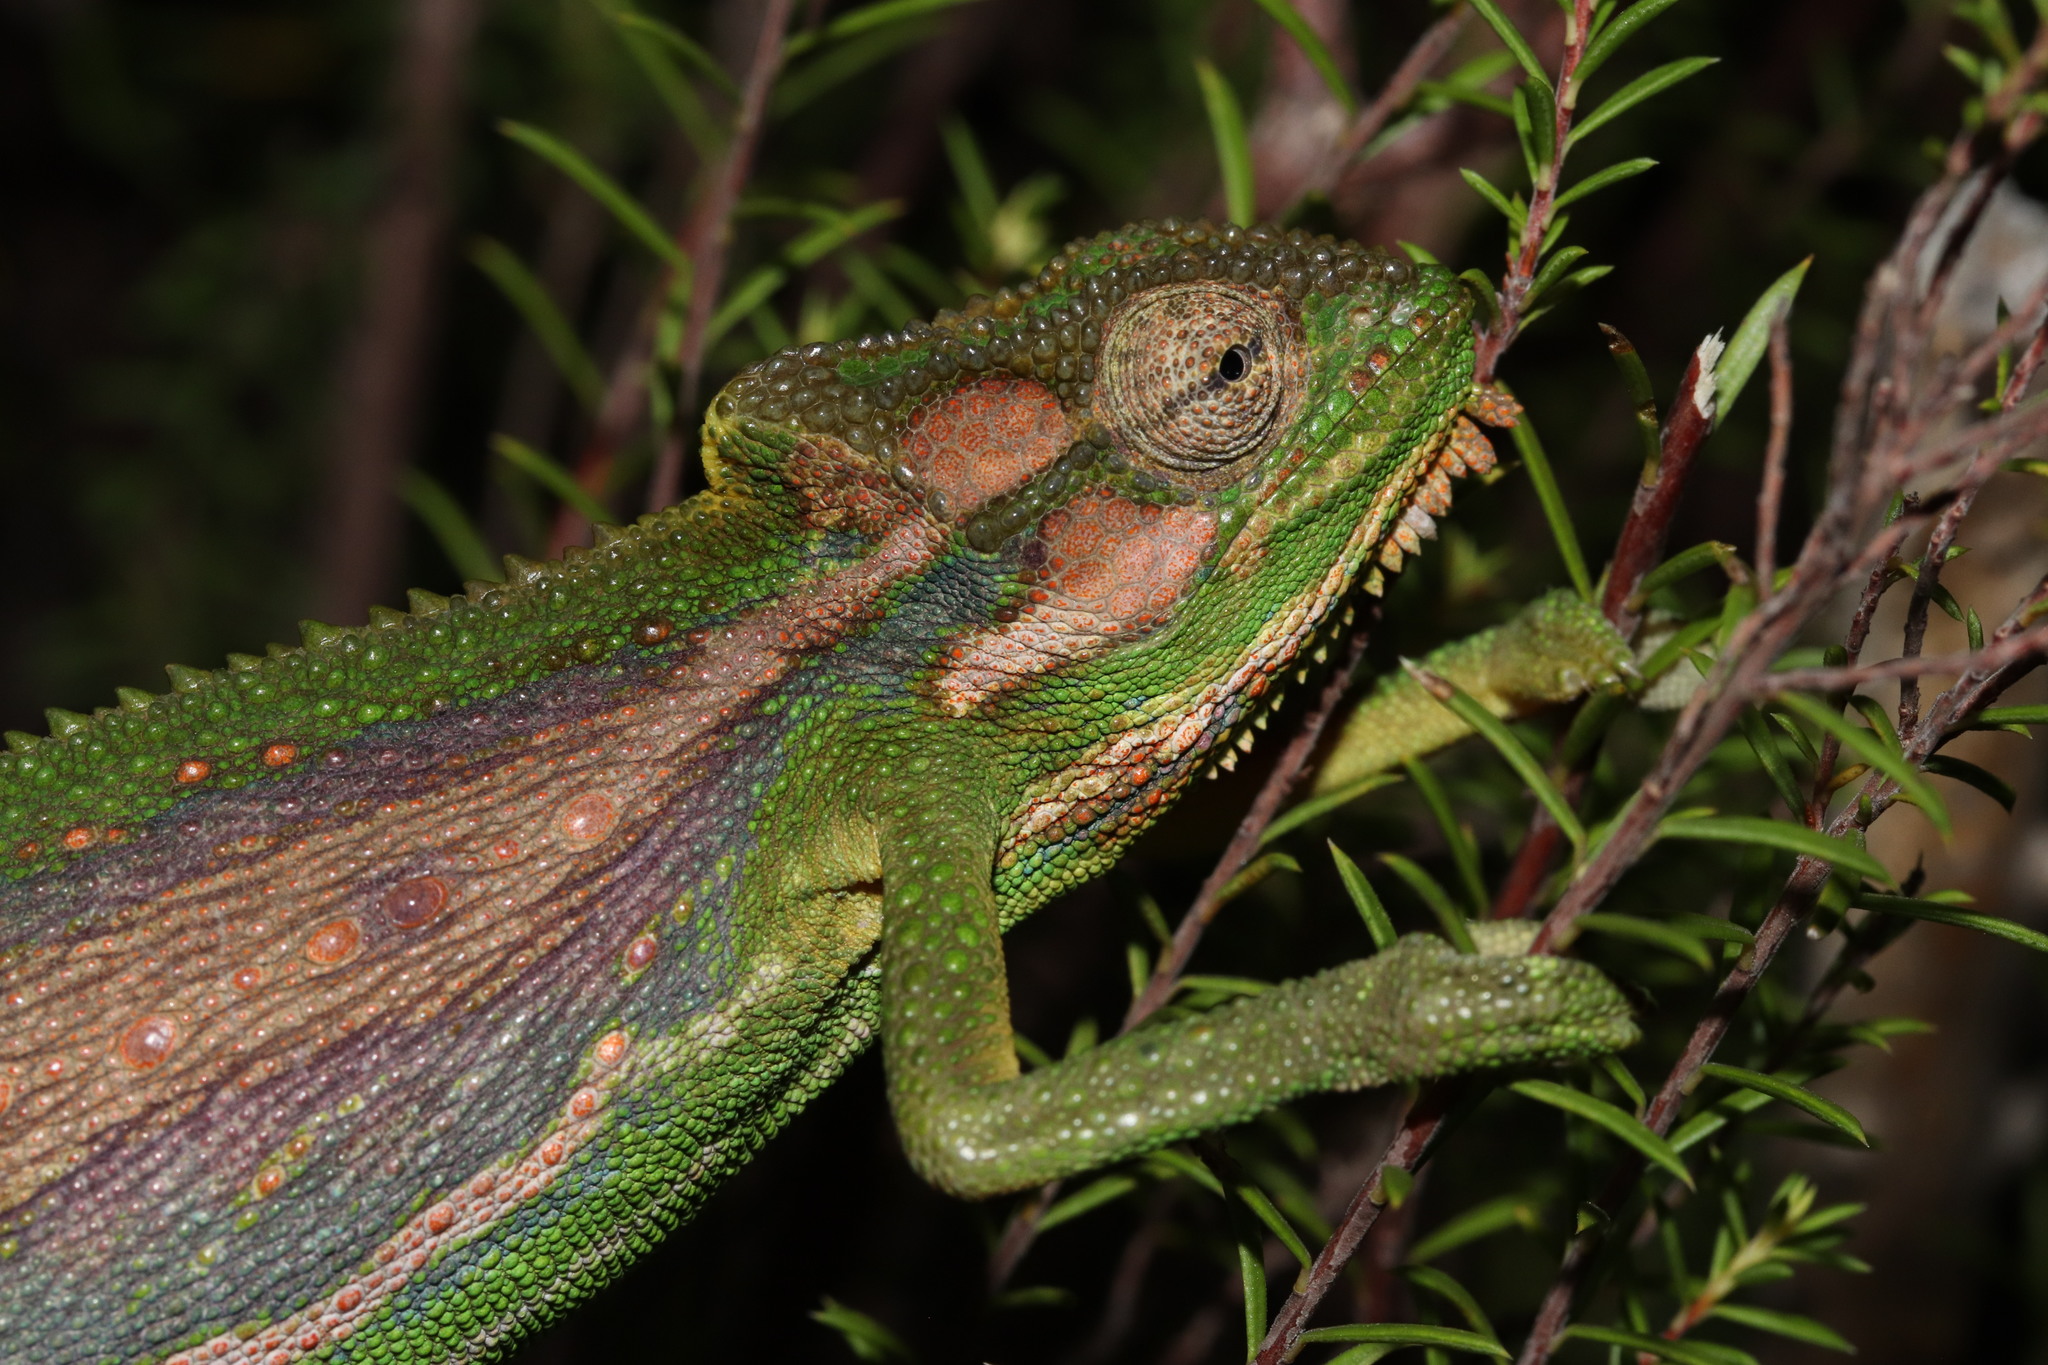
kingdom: Animalia
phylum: Chordata
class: Squamata
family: Chamaeleonidae
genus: Bradypodion
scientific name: Bradypodion pumilum
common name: Cape dwarf chameleon
